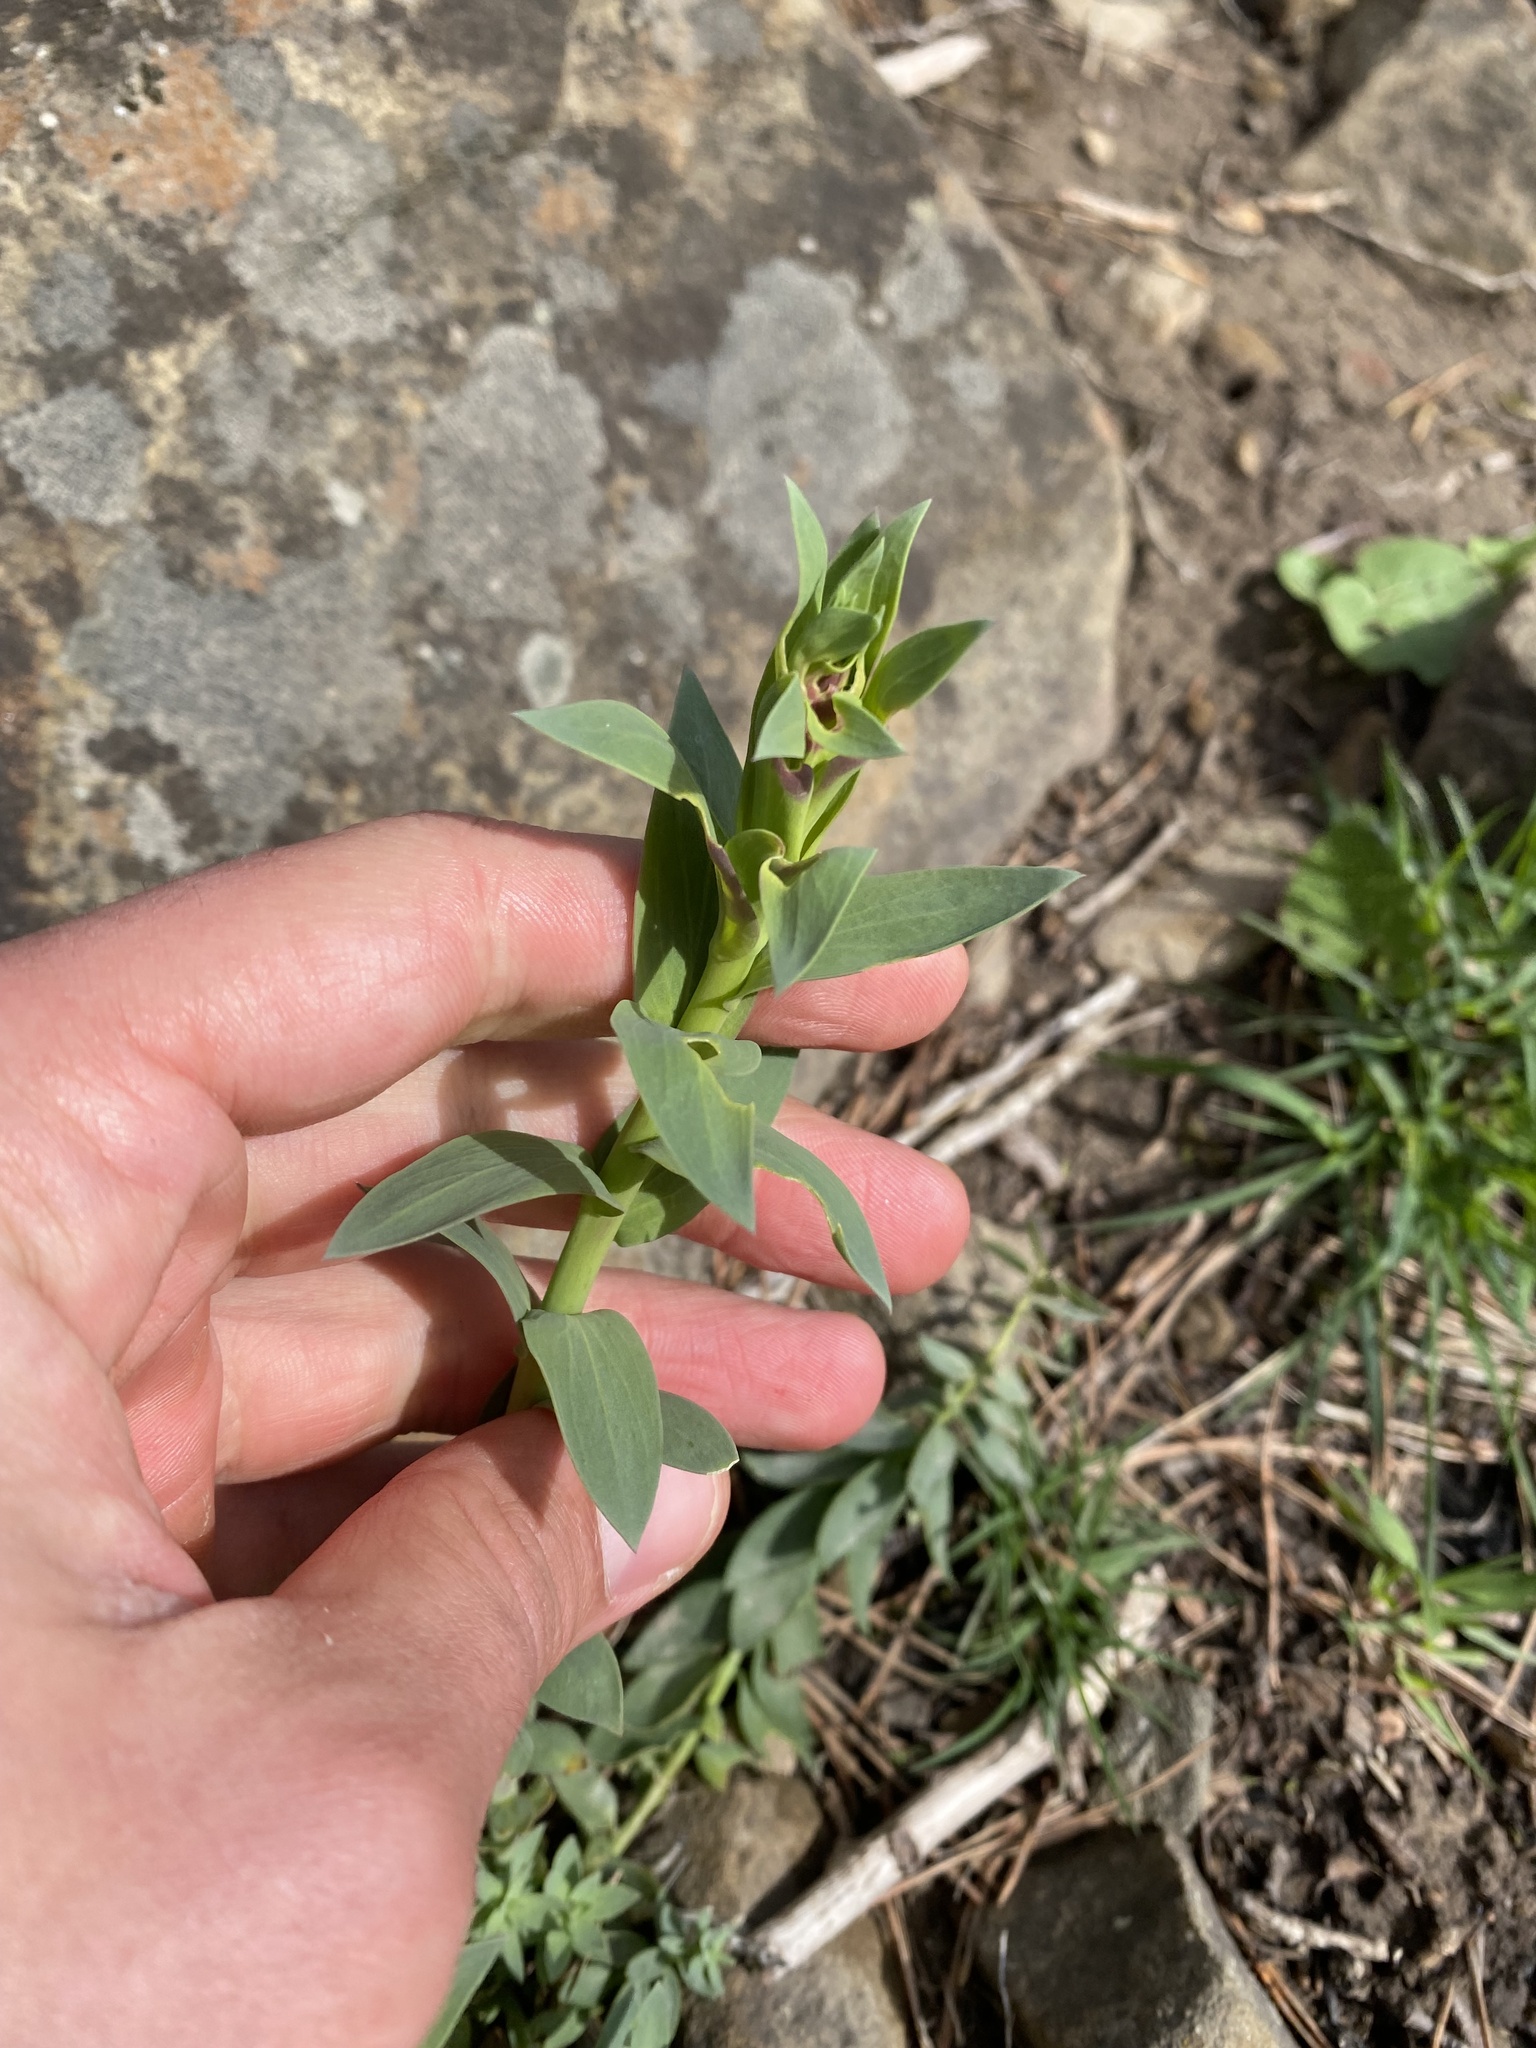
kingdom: Plantae
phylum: Tracheophyta
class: Magnoliopsida
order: Lamiales
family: Plantaginaceae
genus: Linaria
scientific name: Linaria genistifolia
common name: Broomleaf toadflax
